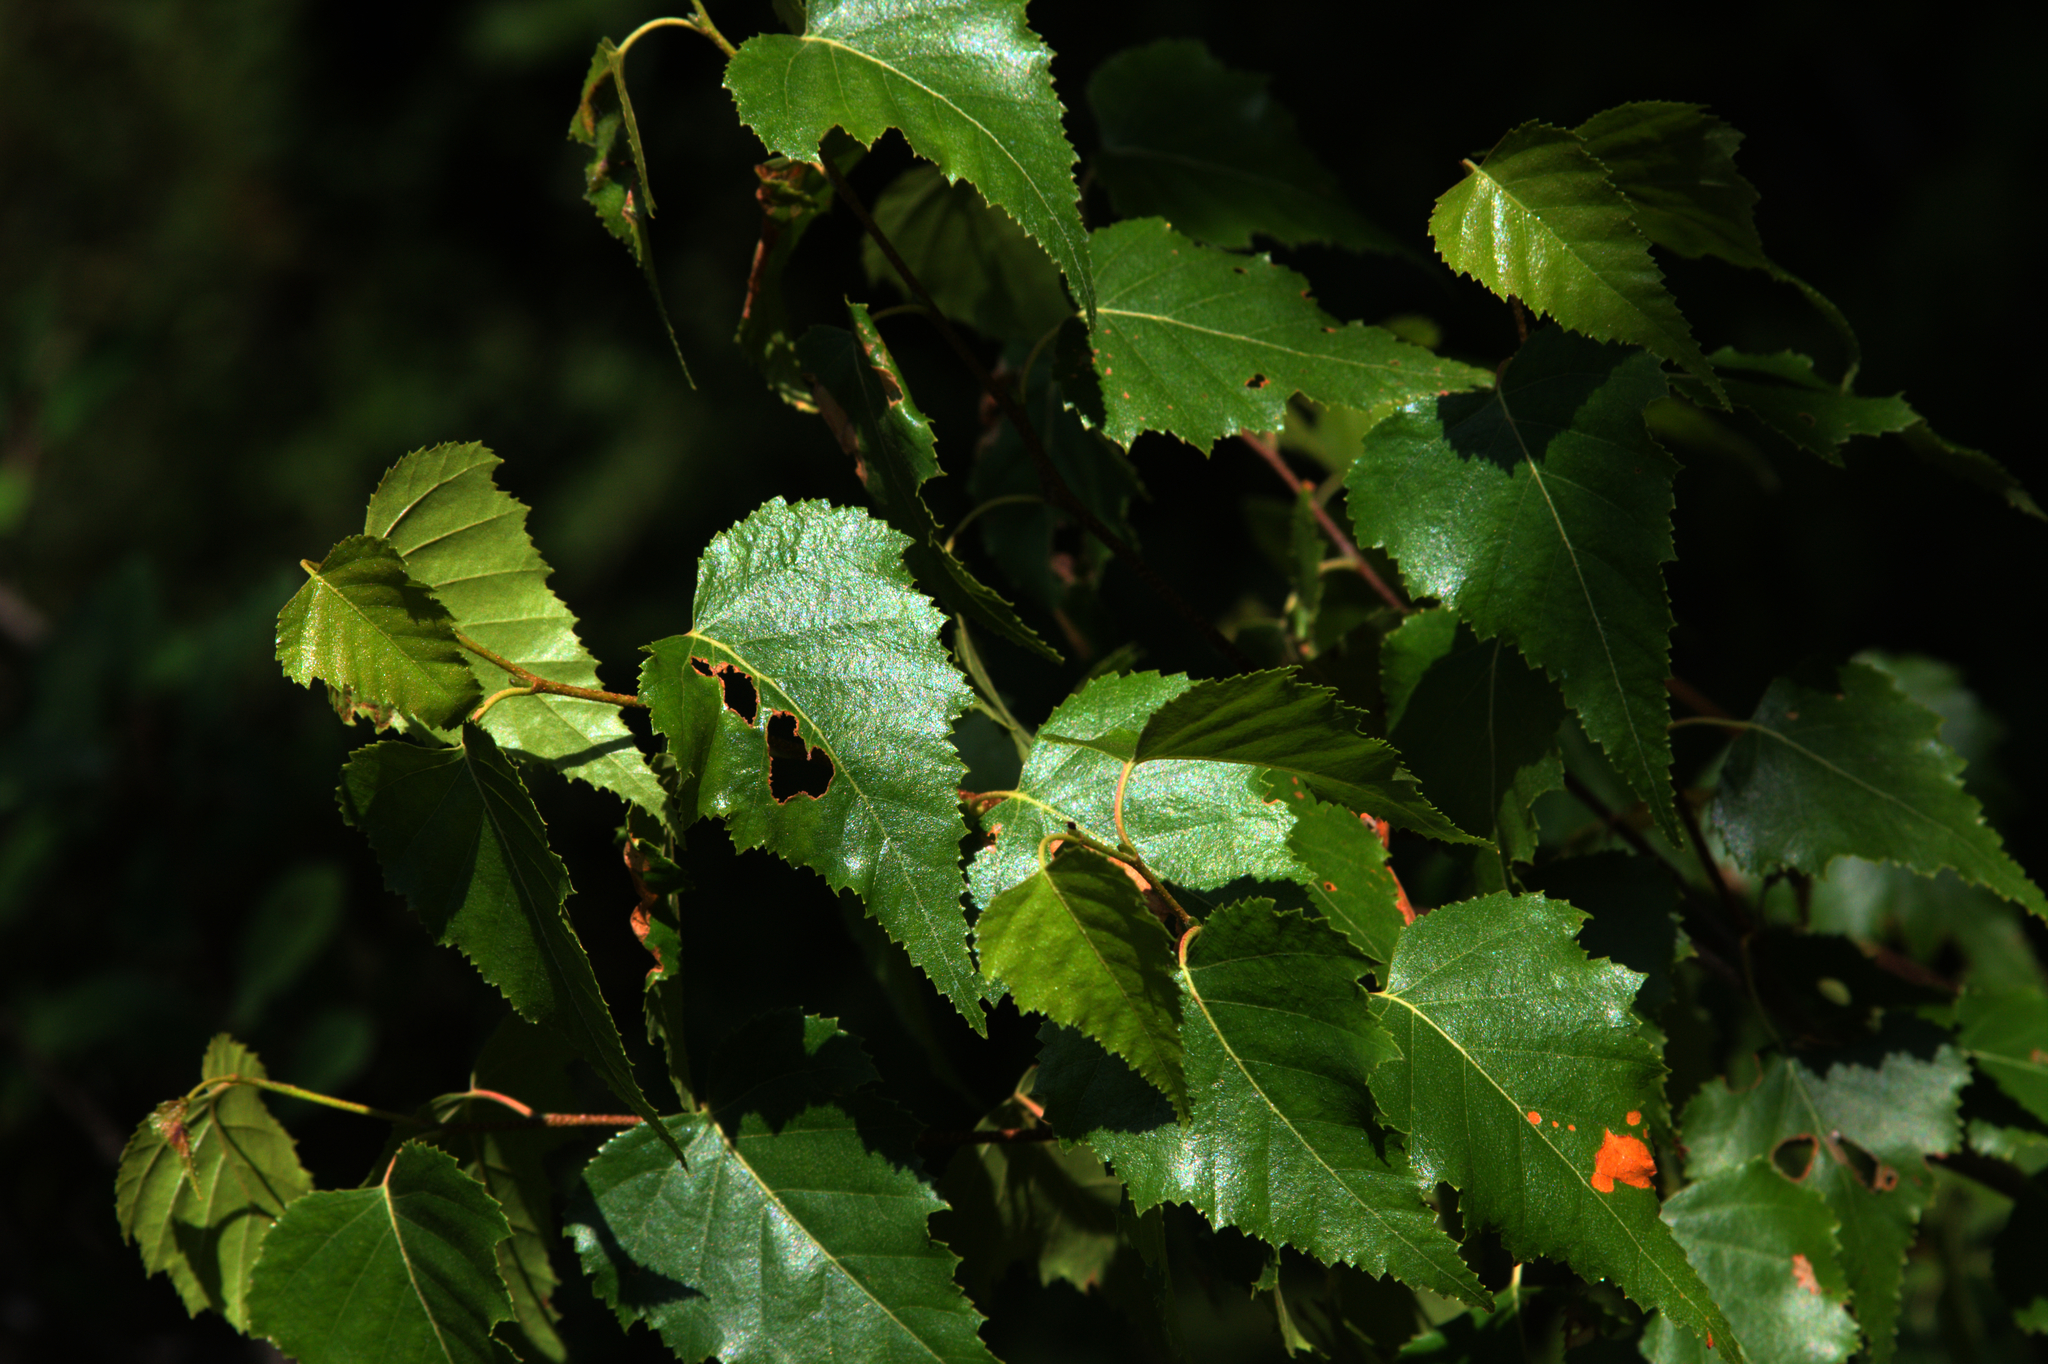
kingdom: Plantae
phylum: Tracheophyta
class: Magnoliopsida
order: Fagales
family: Betulaceae
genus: Betula
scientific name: Betula populifolia
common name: Fire birch
